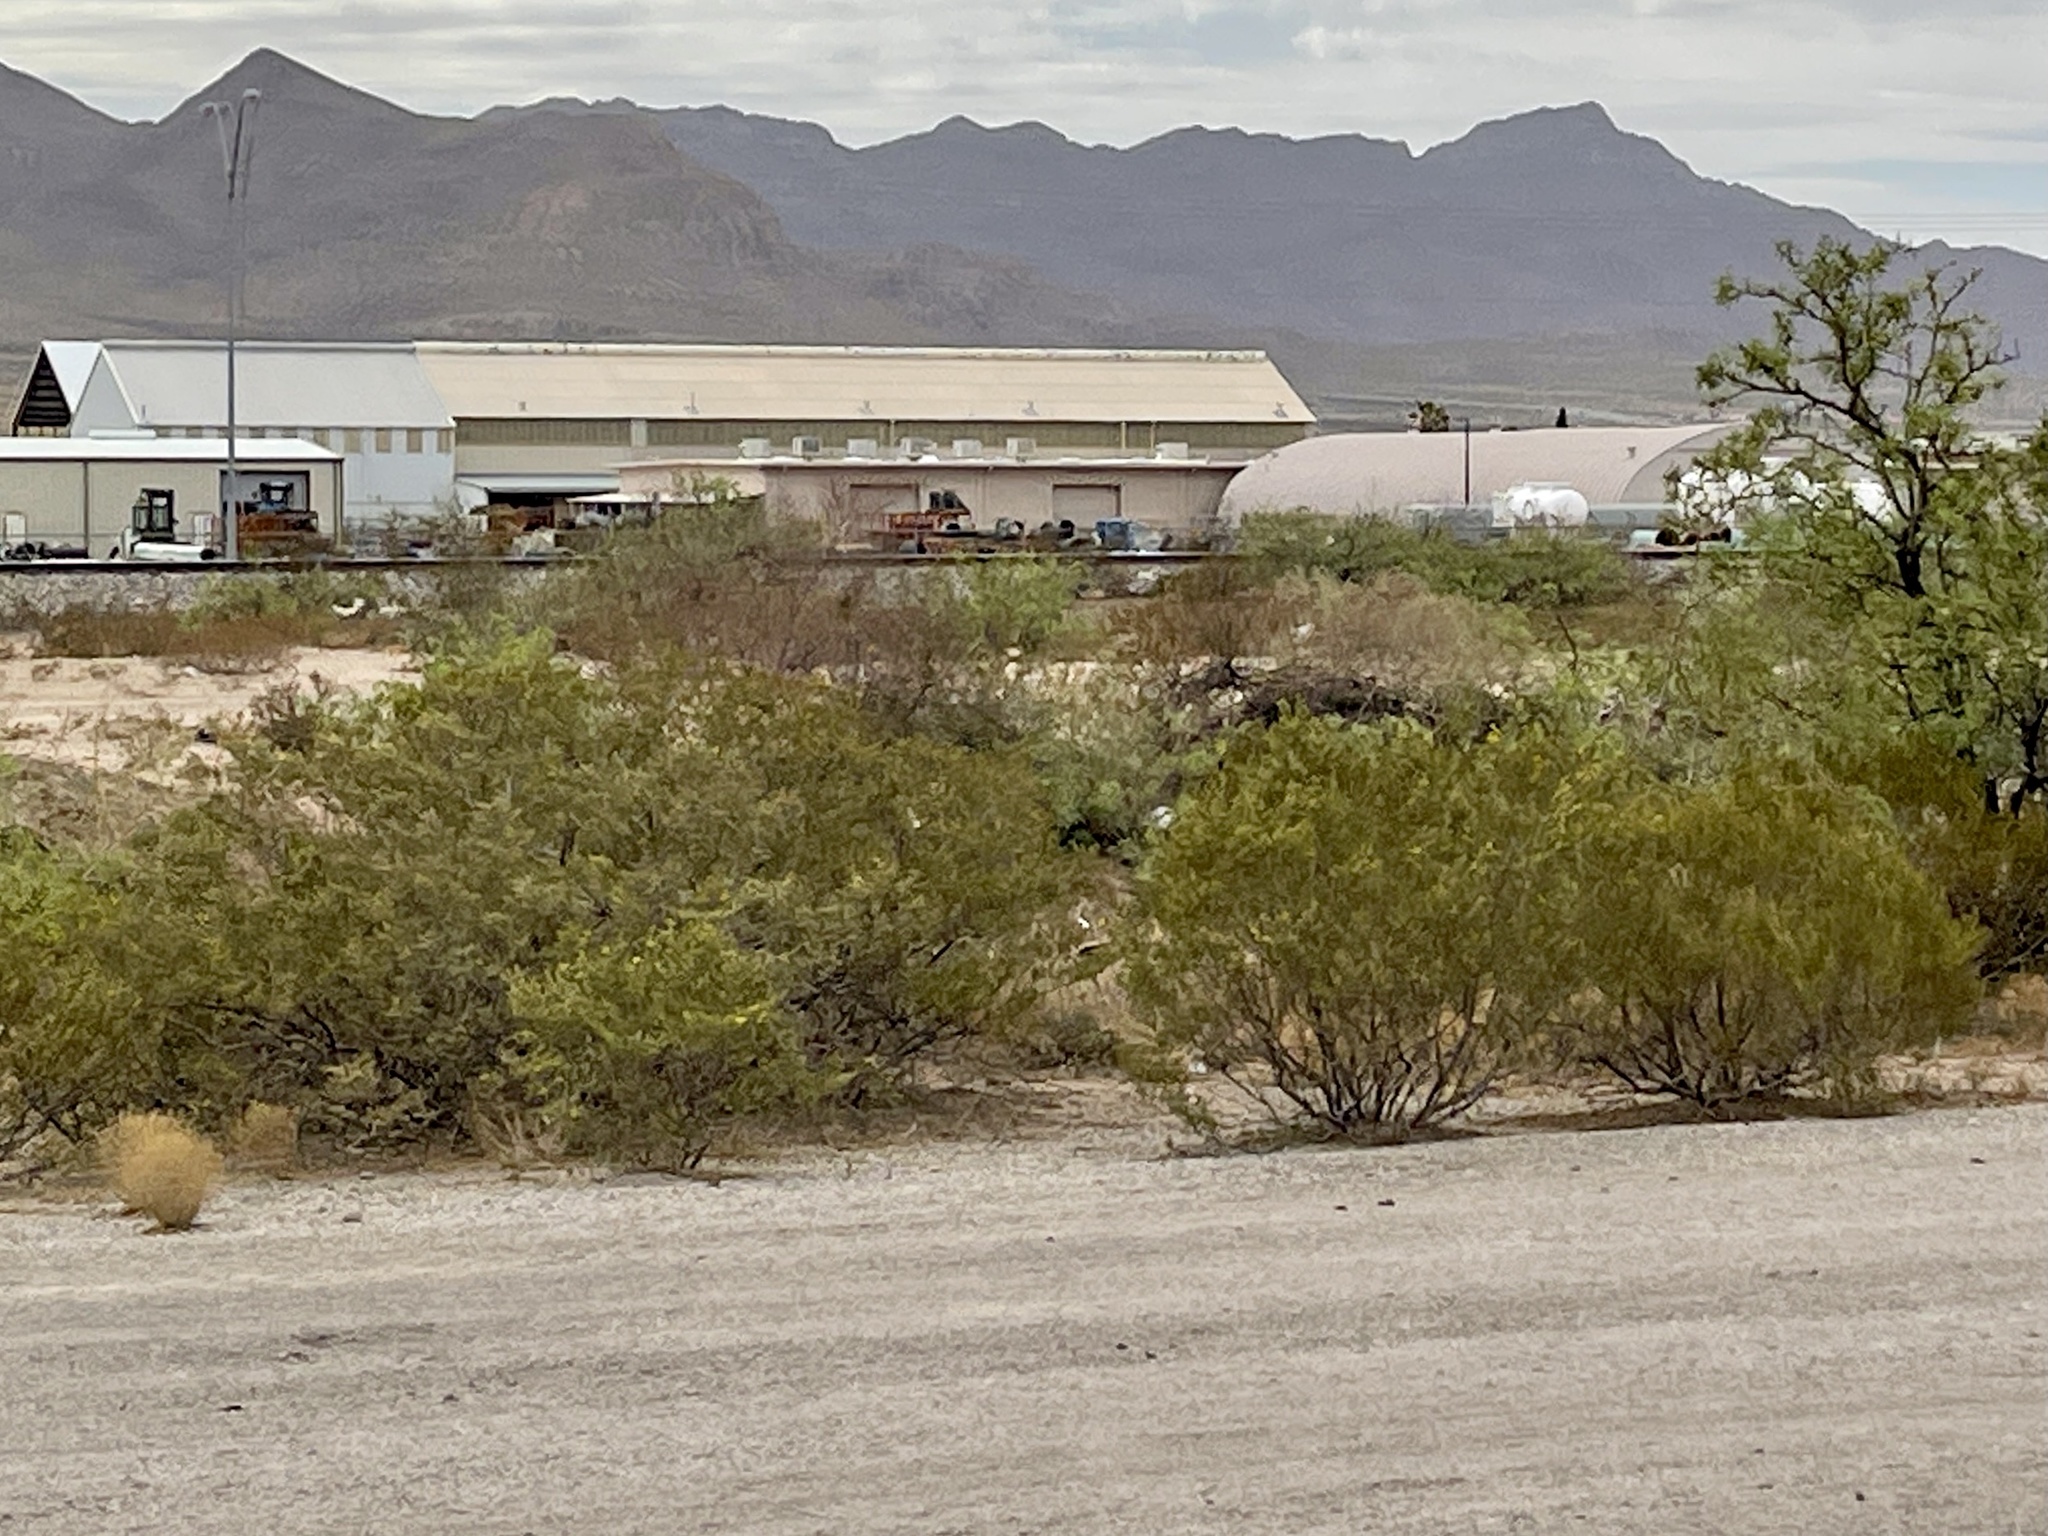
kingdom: Plantae
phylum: Tracheophyta
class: Magnoliopsida
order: Zygophyllales
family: Zygophyllaceae
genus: Larrea
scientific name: Larrea tridentata
